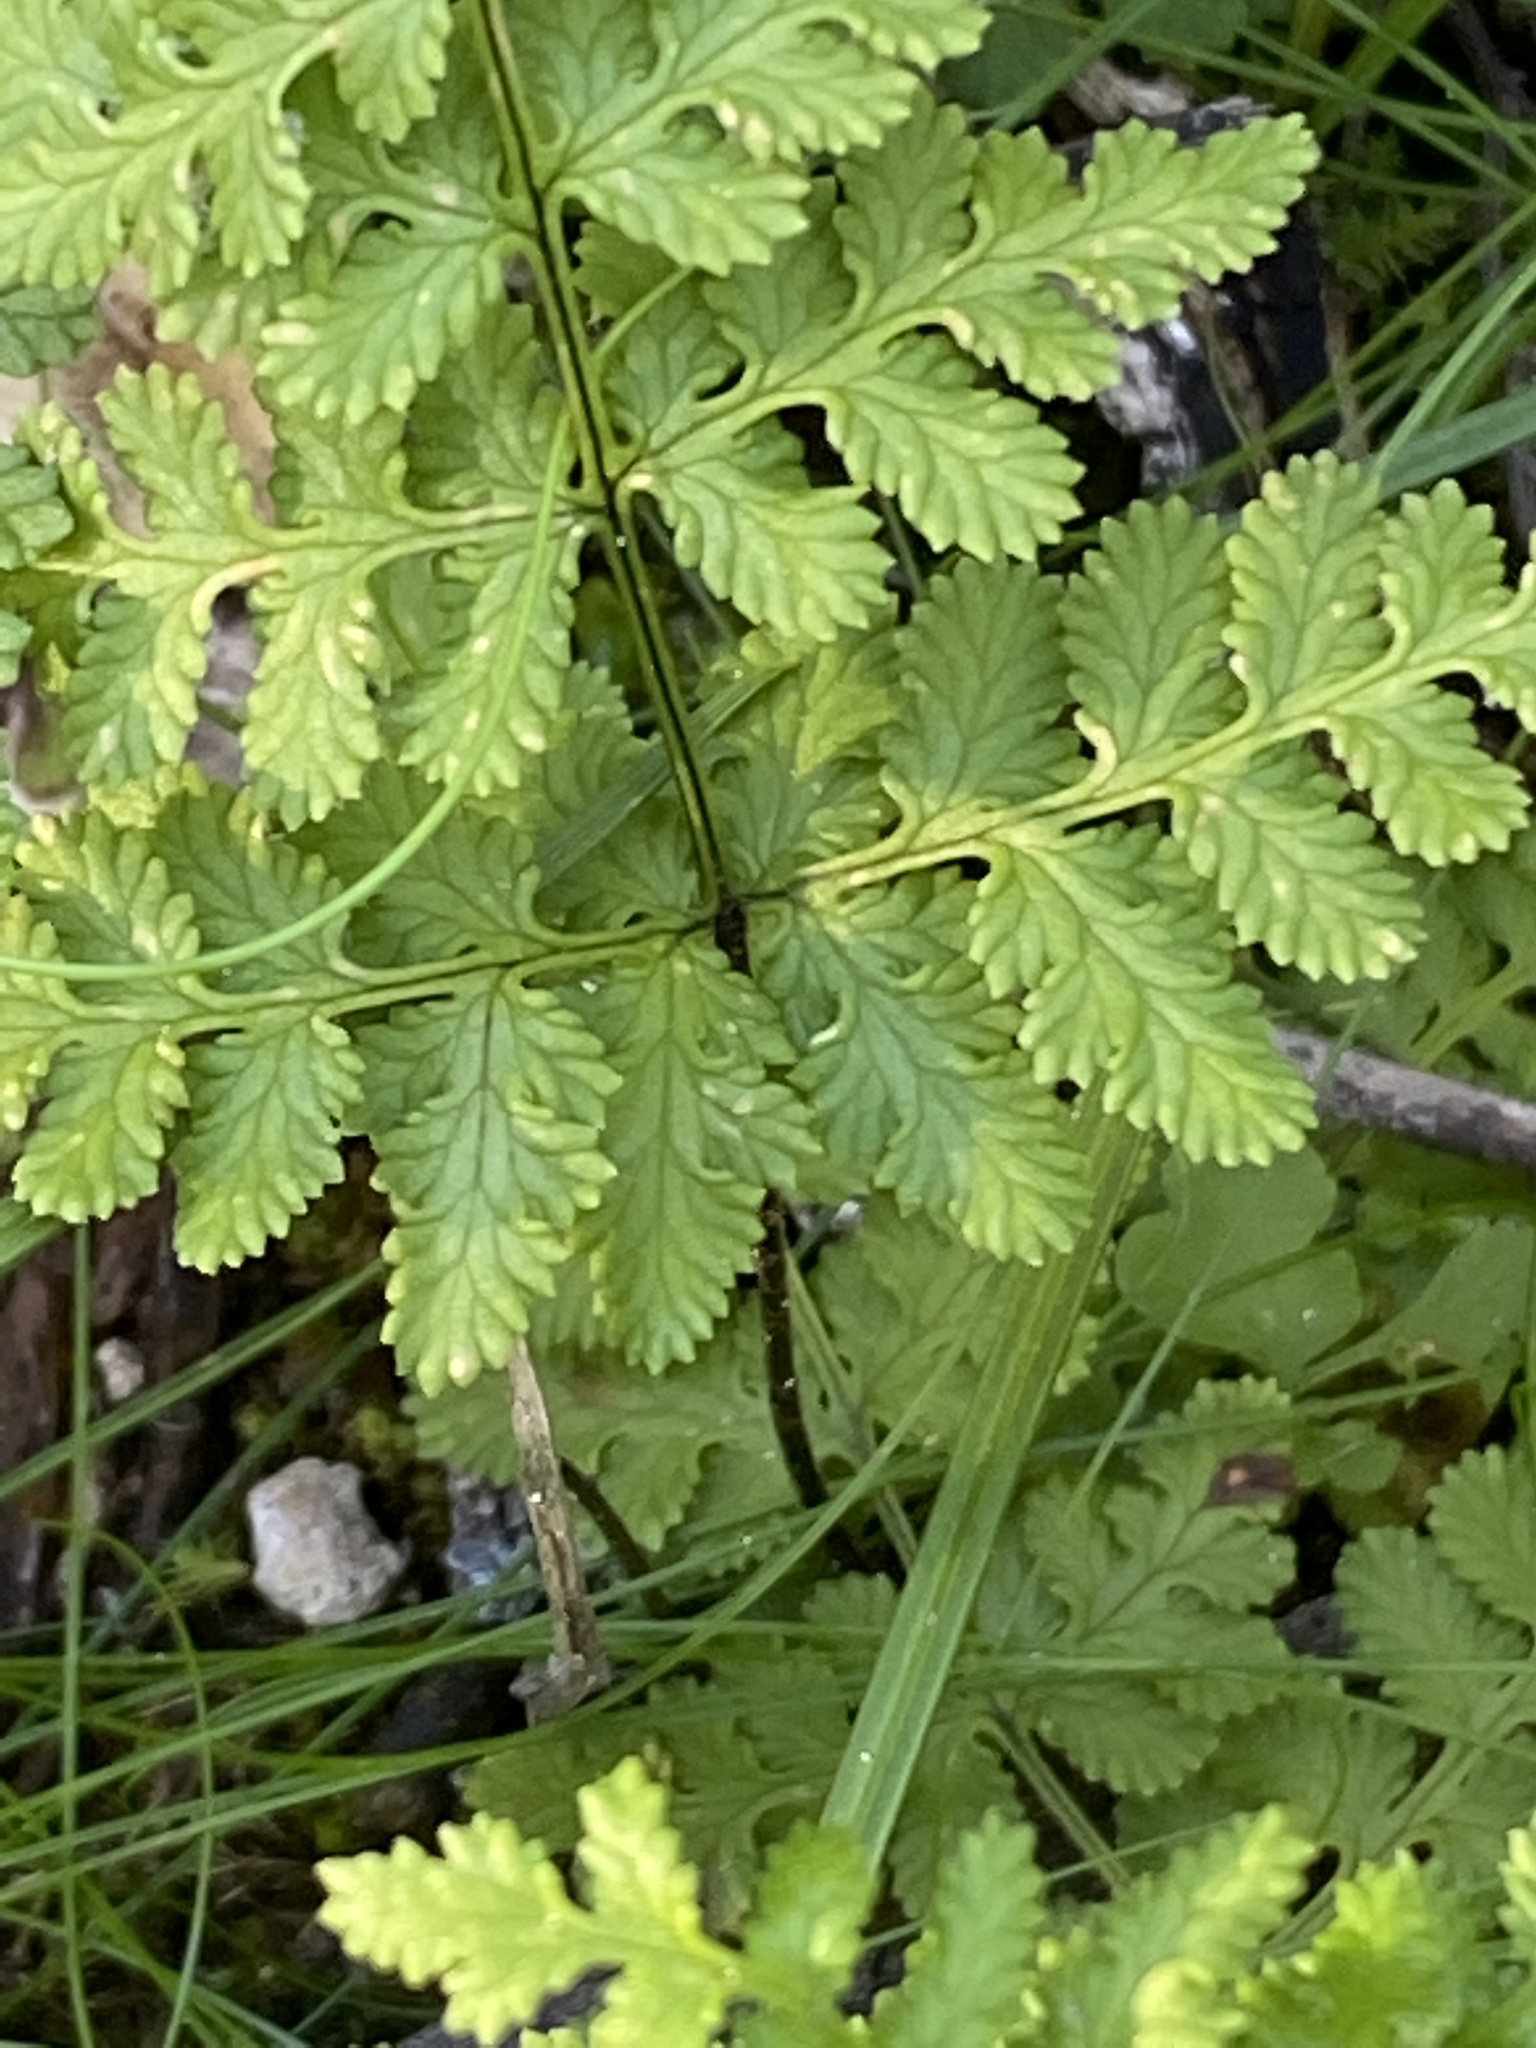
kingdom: Plantae
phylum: Tracheophyta
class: Polypodiopsida
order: Polypodiales
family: Pteridaceae
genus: Cheilanthes
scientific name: Cheilanthes capensis
